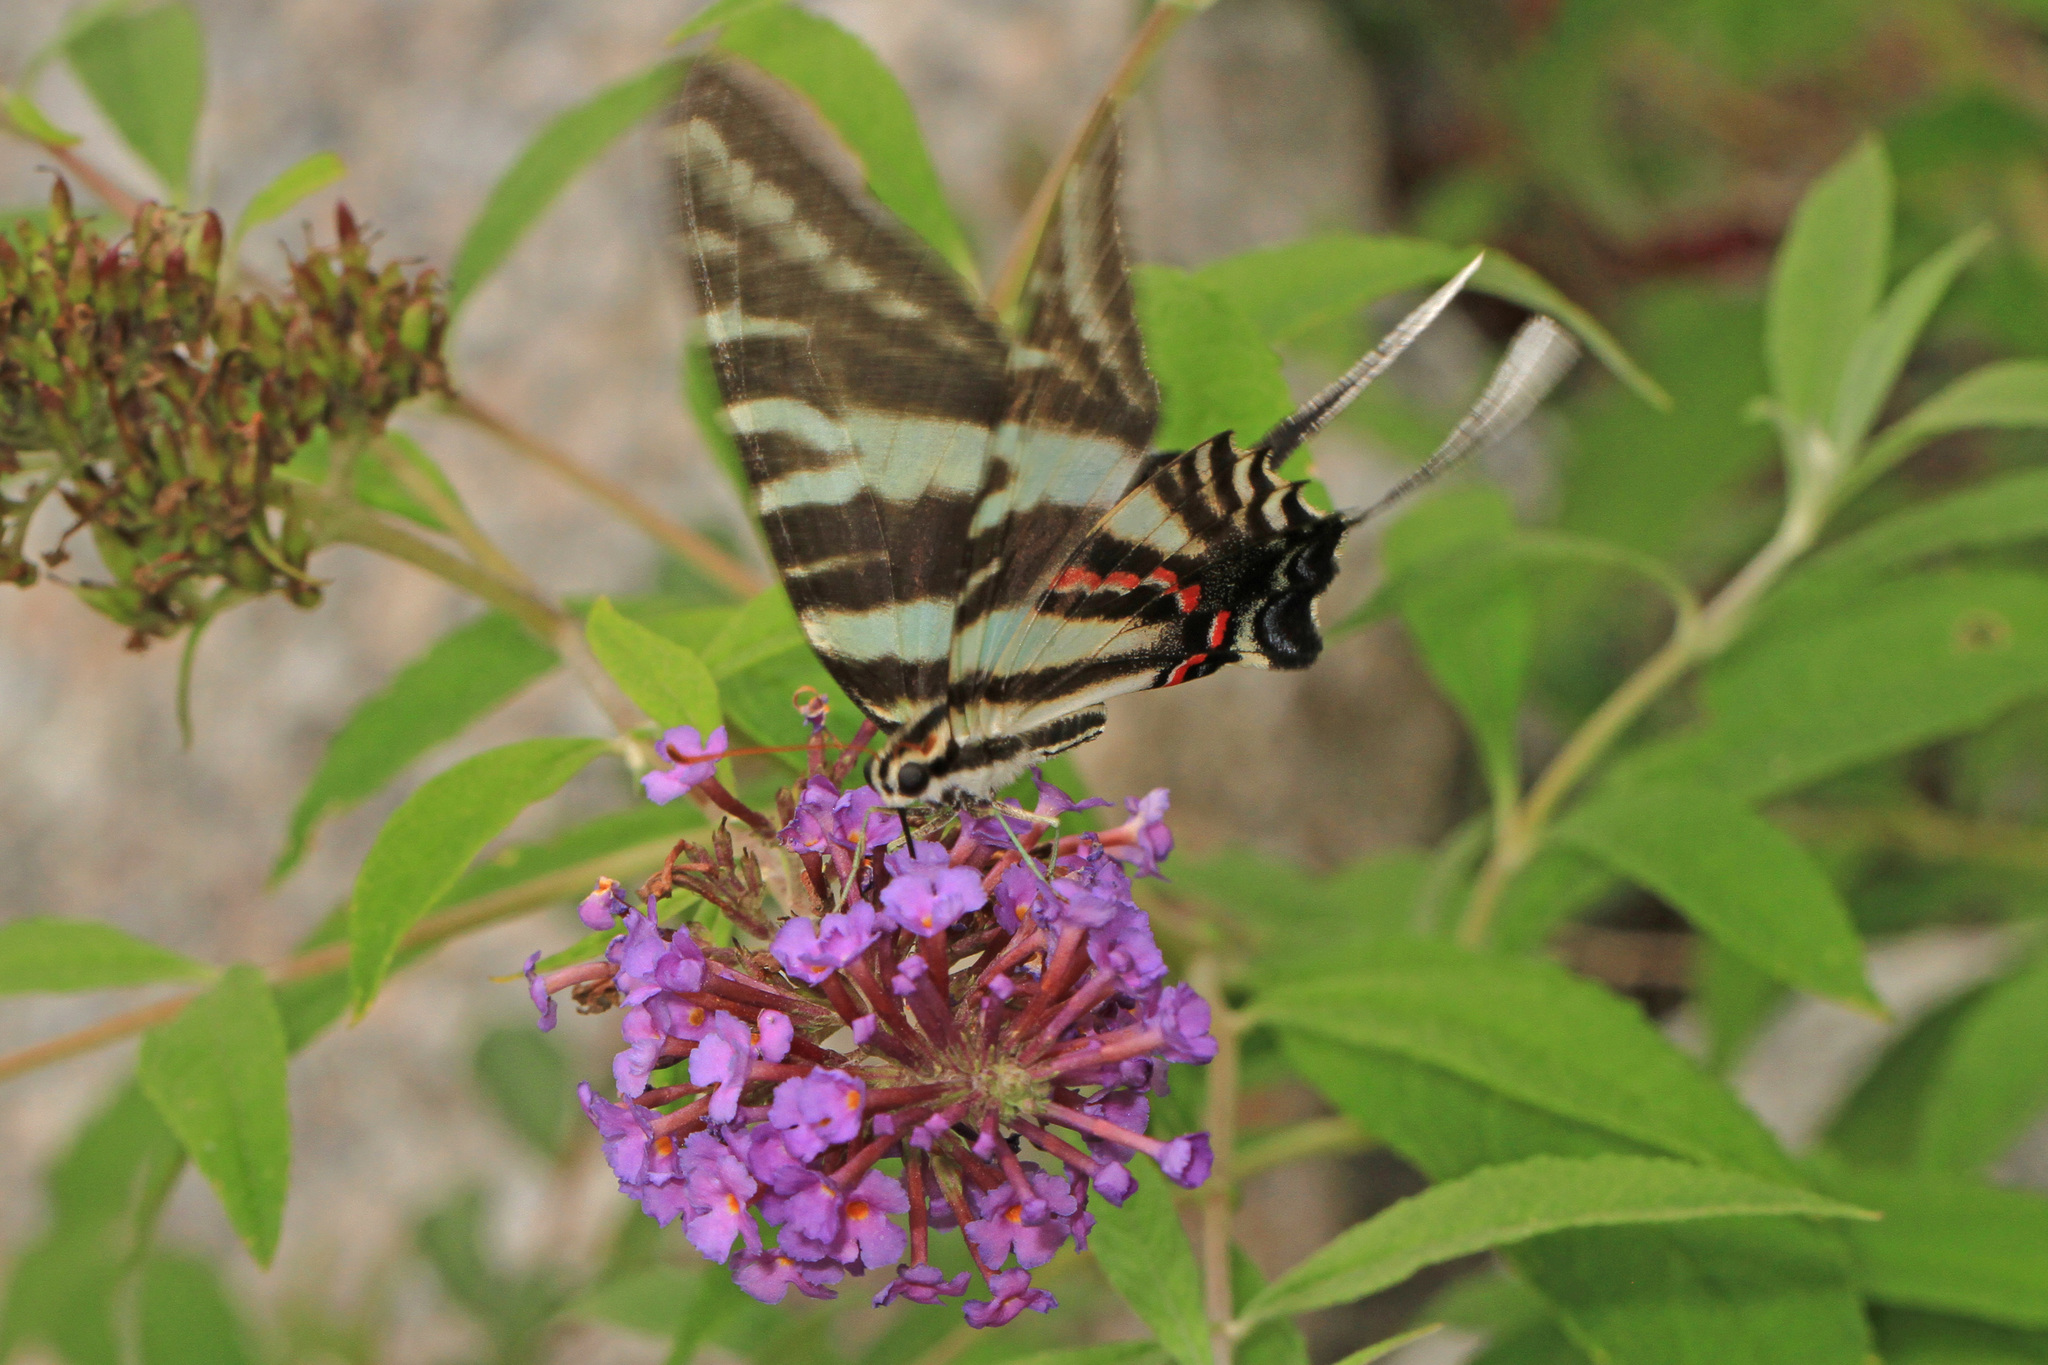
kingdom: Animalia
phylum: Arthropoda
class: Insecta
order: Lepidoptera
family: Papilionidae
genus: Protographium
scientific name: Protographium marcellus
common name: Zebra swallowtail
